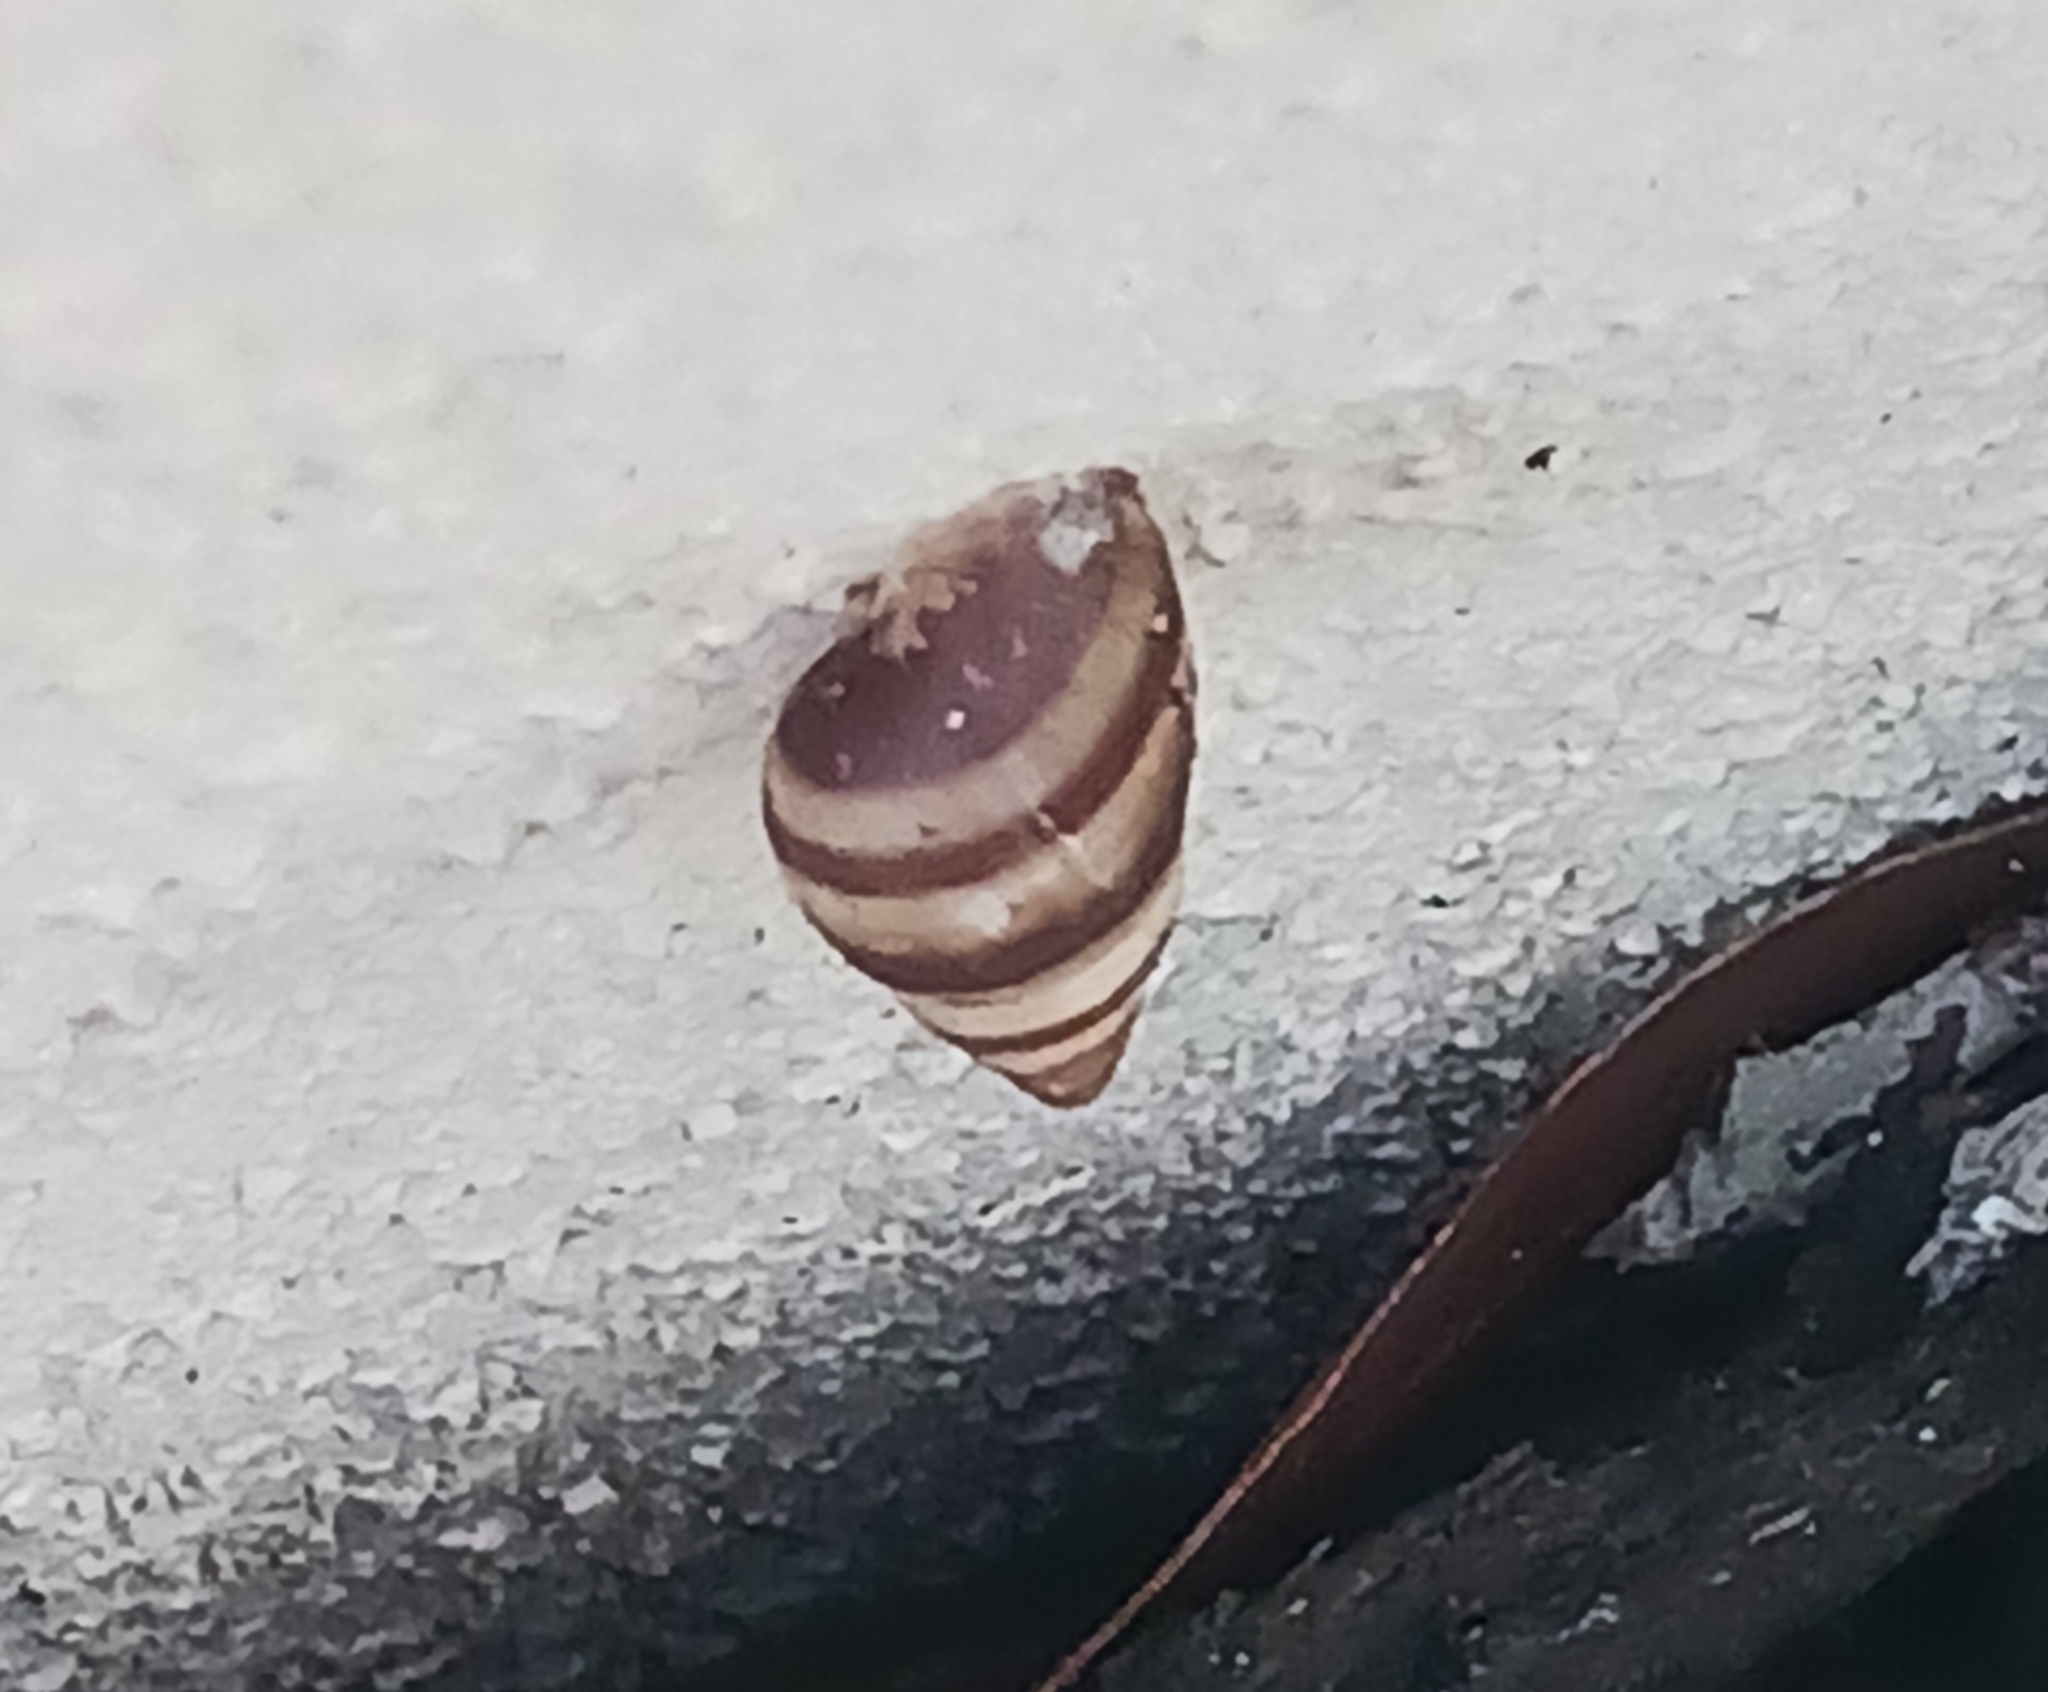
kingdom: Animalia
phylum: Mollusca
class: Gastropoda
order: Stylommatophora
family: Bulimulidae
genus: Bulimulus
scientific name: Bulimulus guadalupensis
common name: West indian bulimulus
